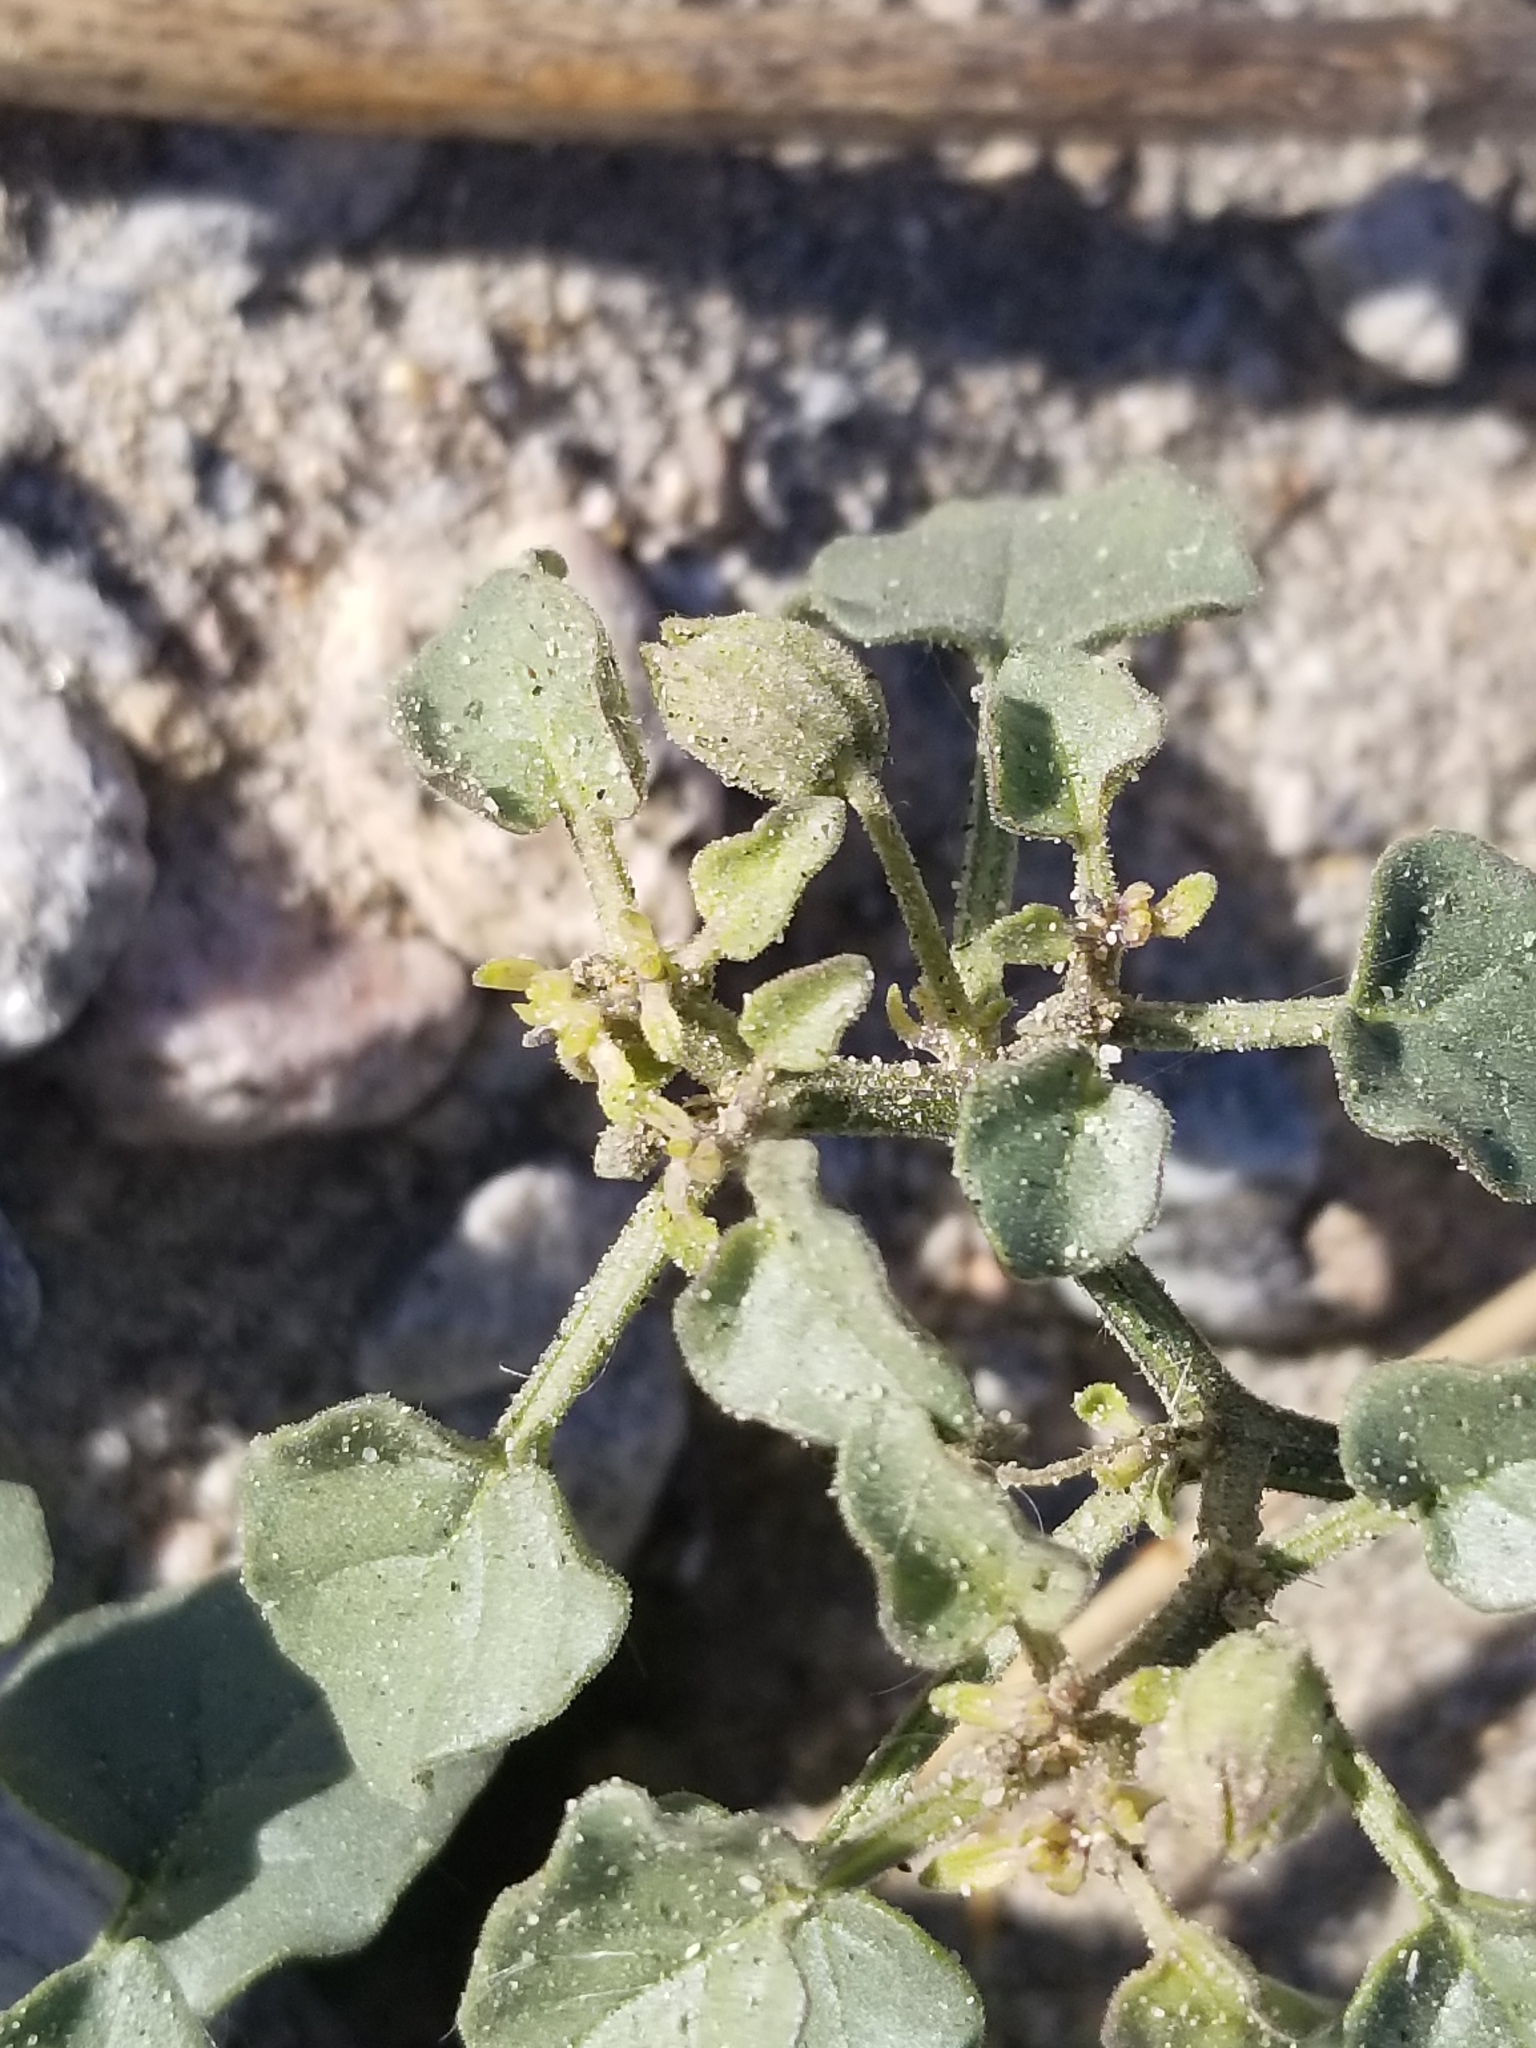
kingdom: Plantae
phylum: Tracheophyta
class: Magnoliopsida
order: Solanales
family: Solanaceae
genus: Physalis
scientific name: Physalis crassifolia
